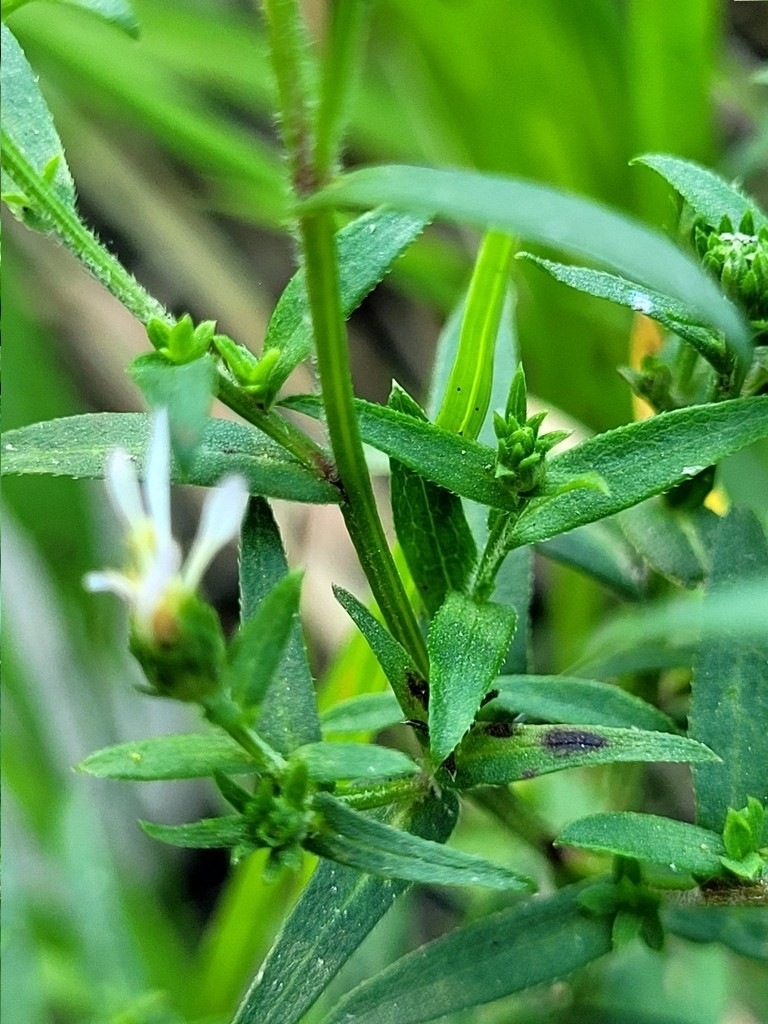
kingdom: Plantae
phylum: Tracheophyta
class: Magnoliopsida
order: Asterales
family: Asteraceae
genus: Symphyotrichum
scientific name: Symphyotrichum lanceolatum
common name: Panicled aster
